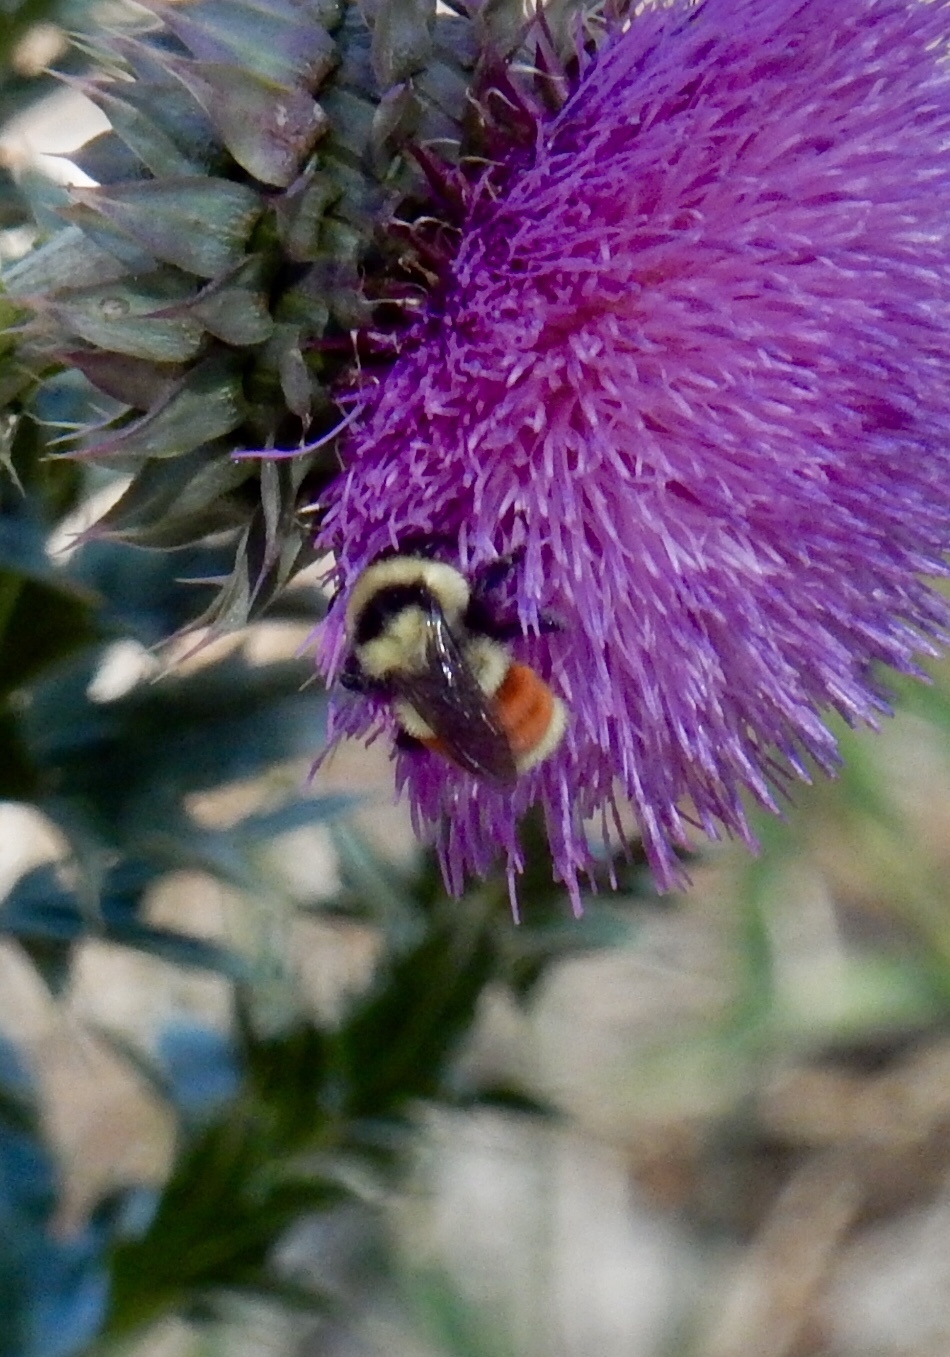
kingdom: Animalia
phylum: Arthropoda
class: Insecta
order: Hymenoptera
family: Apidae
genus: Bombus
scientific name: Bombus huntii
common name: Hunt bumble bee
